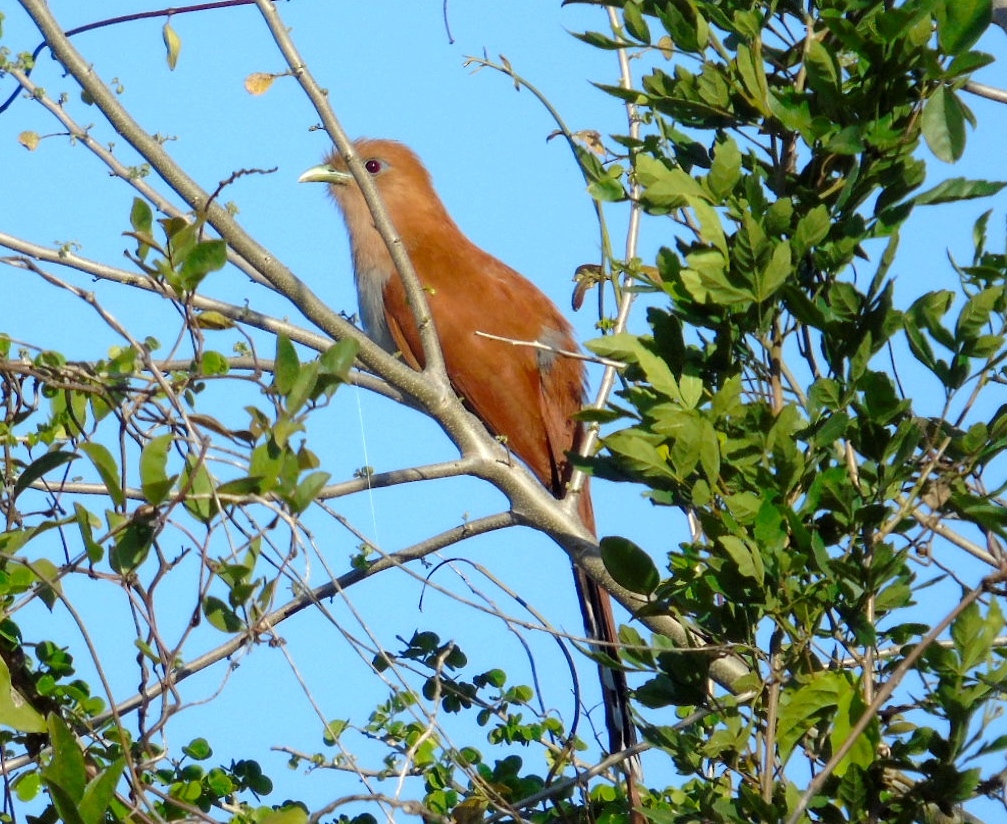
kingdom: Animalia
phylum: Chordata
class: Aves
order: Cuculiformes
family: Cuculidae
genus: Piaya
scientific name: Piaya cayana
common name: Squirrel cuckoo
